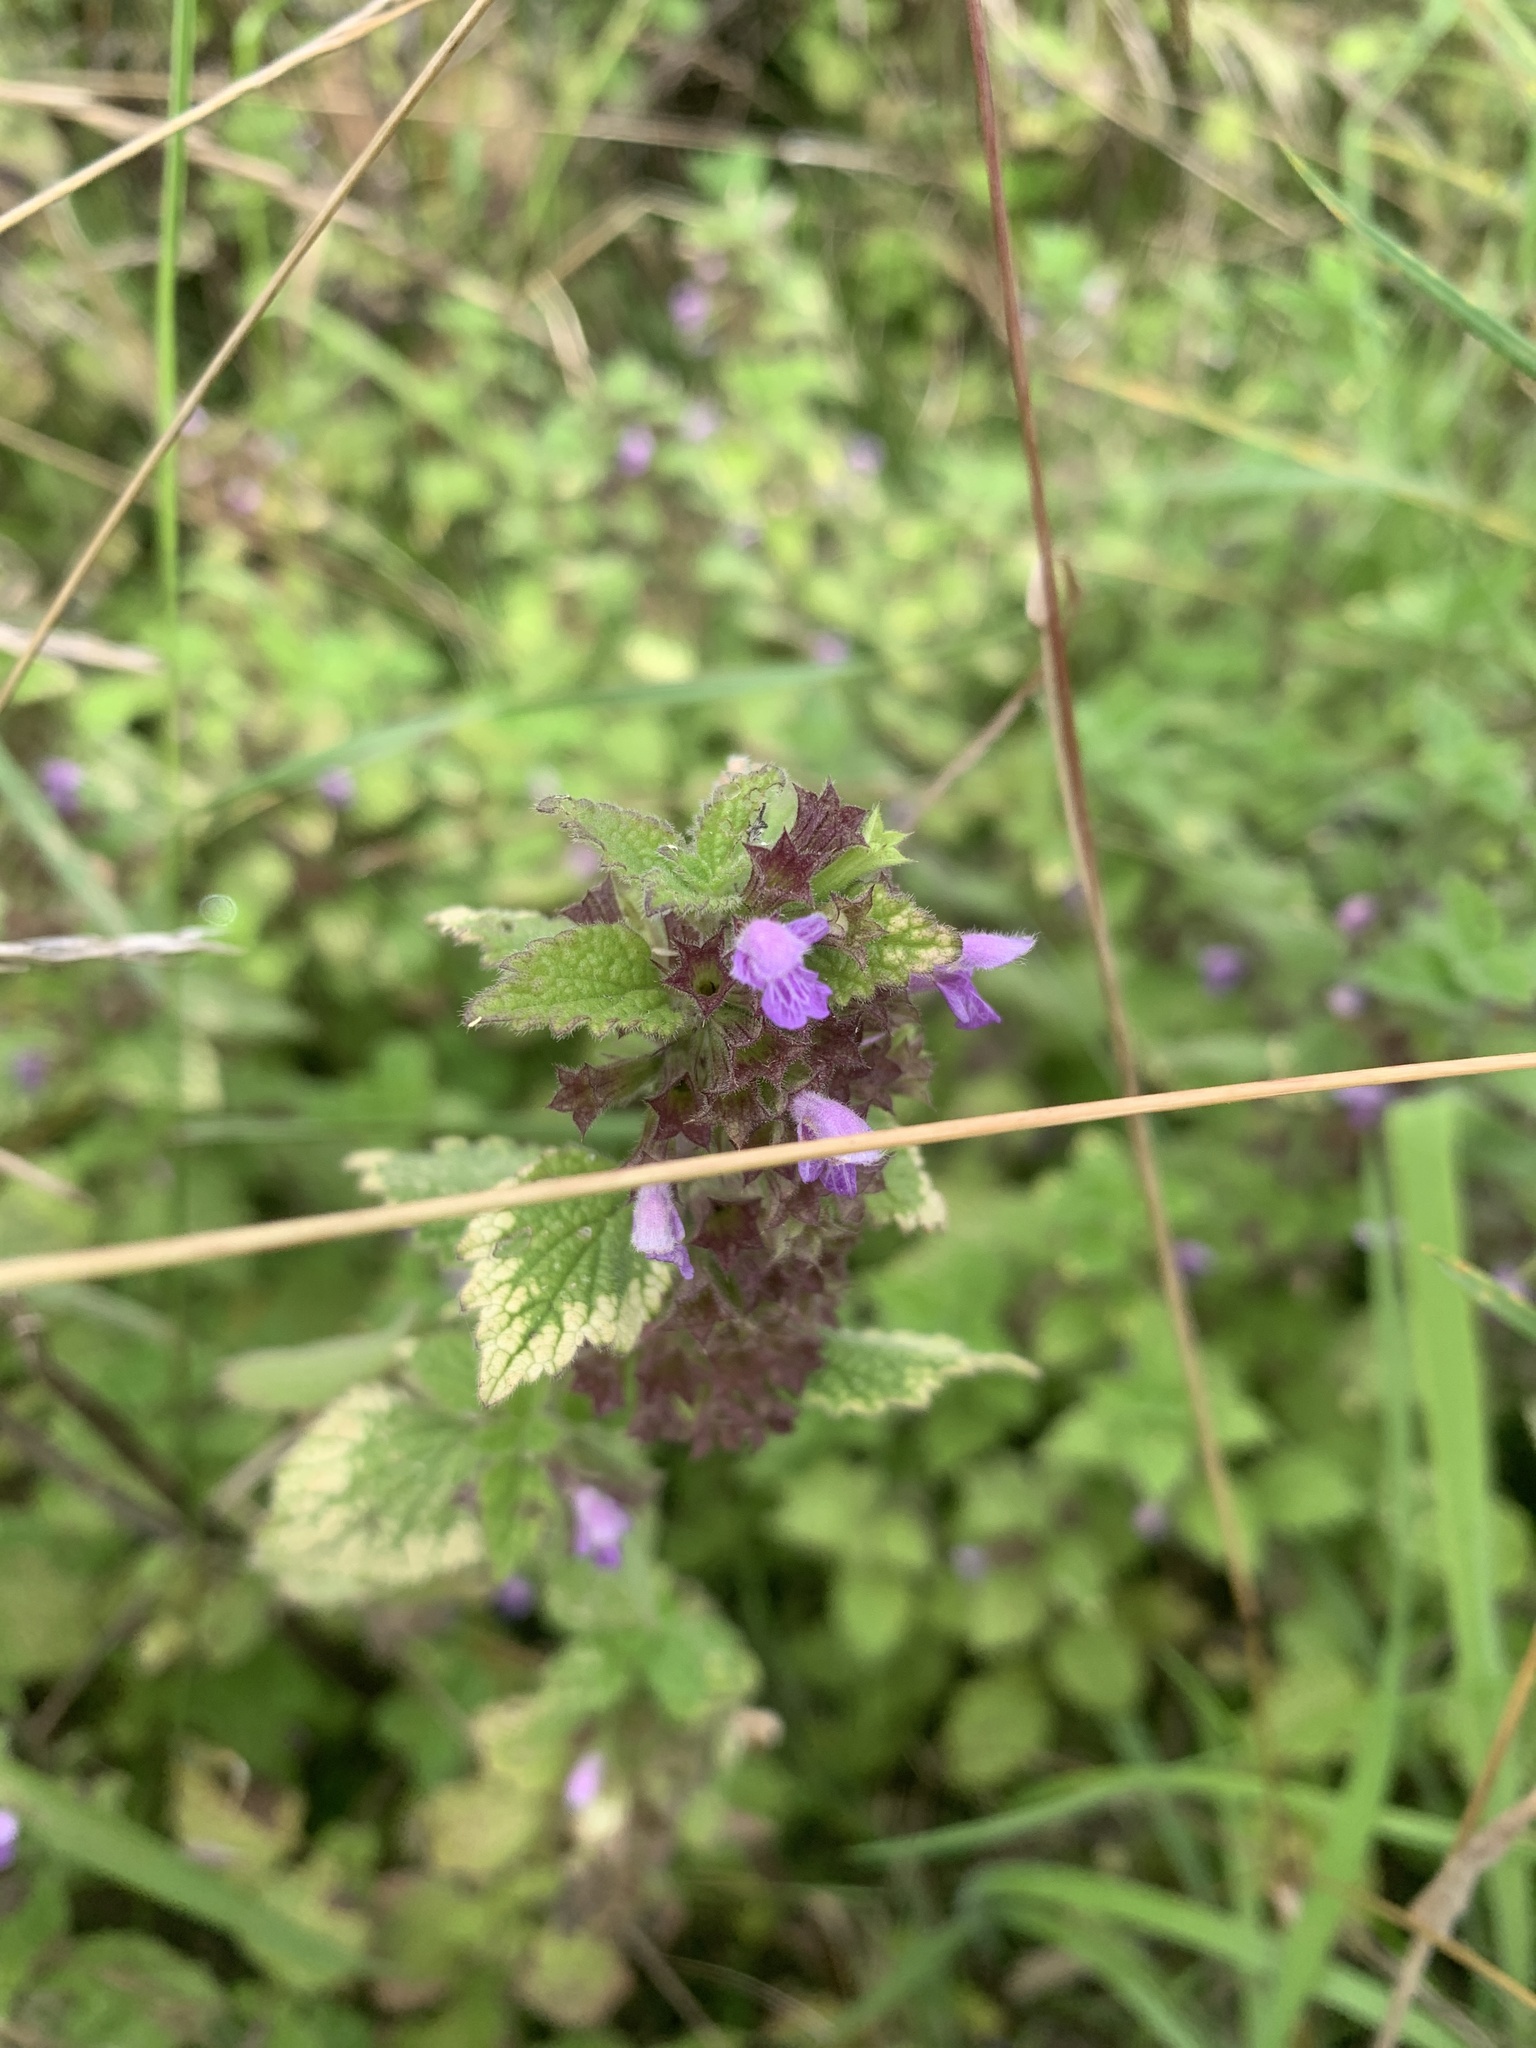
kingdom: Plantae
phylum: Tracheophyta
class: Magnoliopsida
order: Lamiales
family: Lamiaceae
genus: Ballota
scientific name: Ballota nigra
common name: Black horehound
